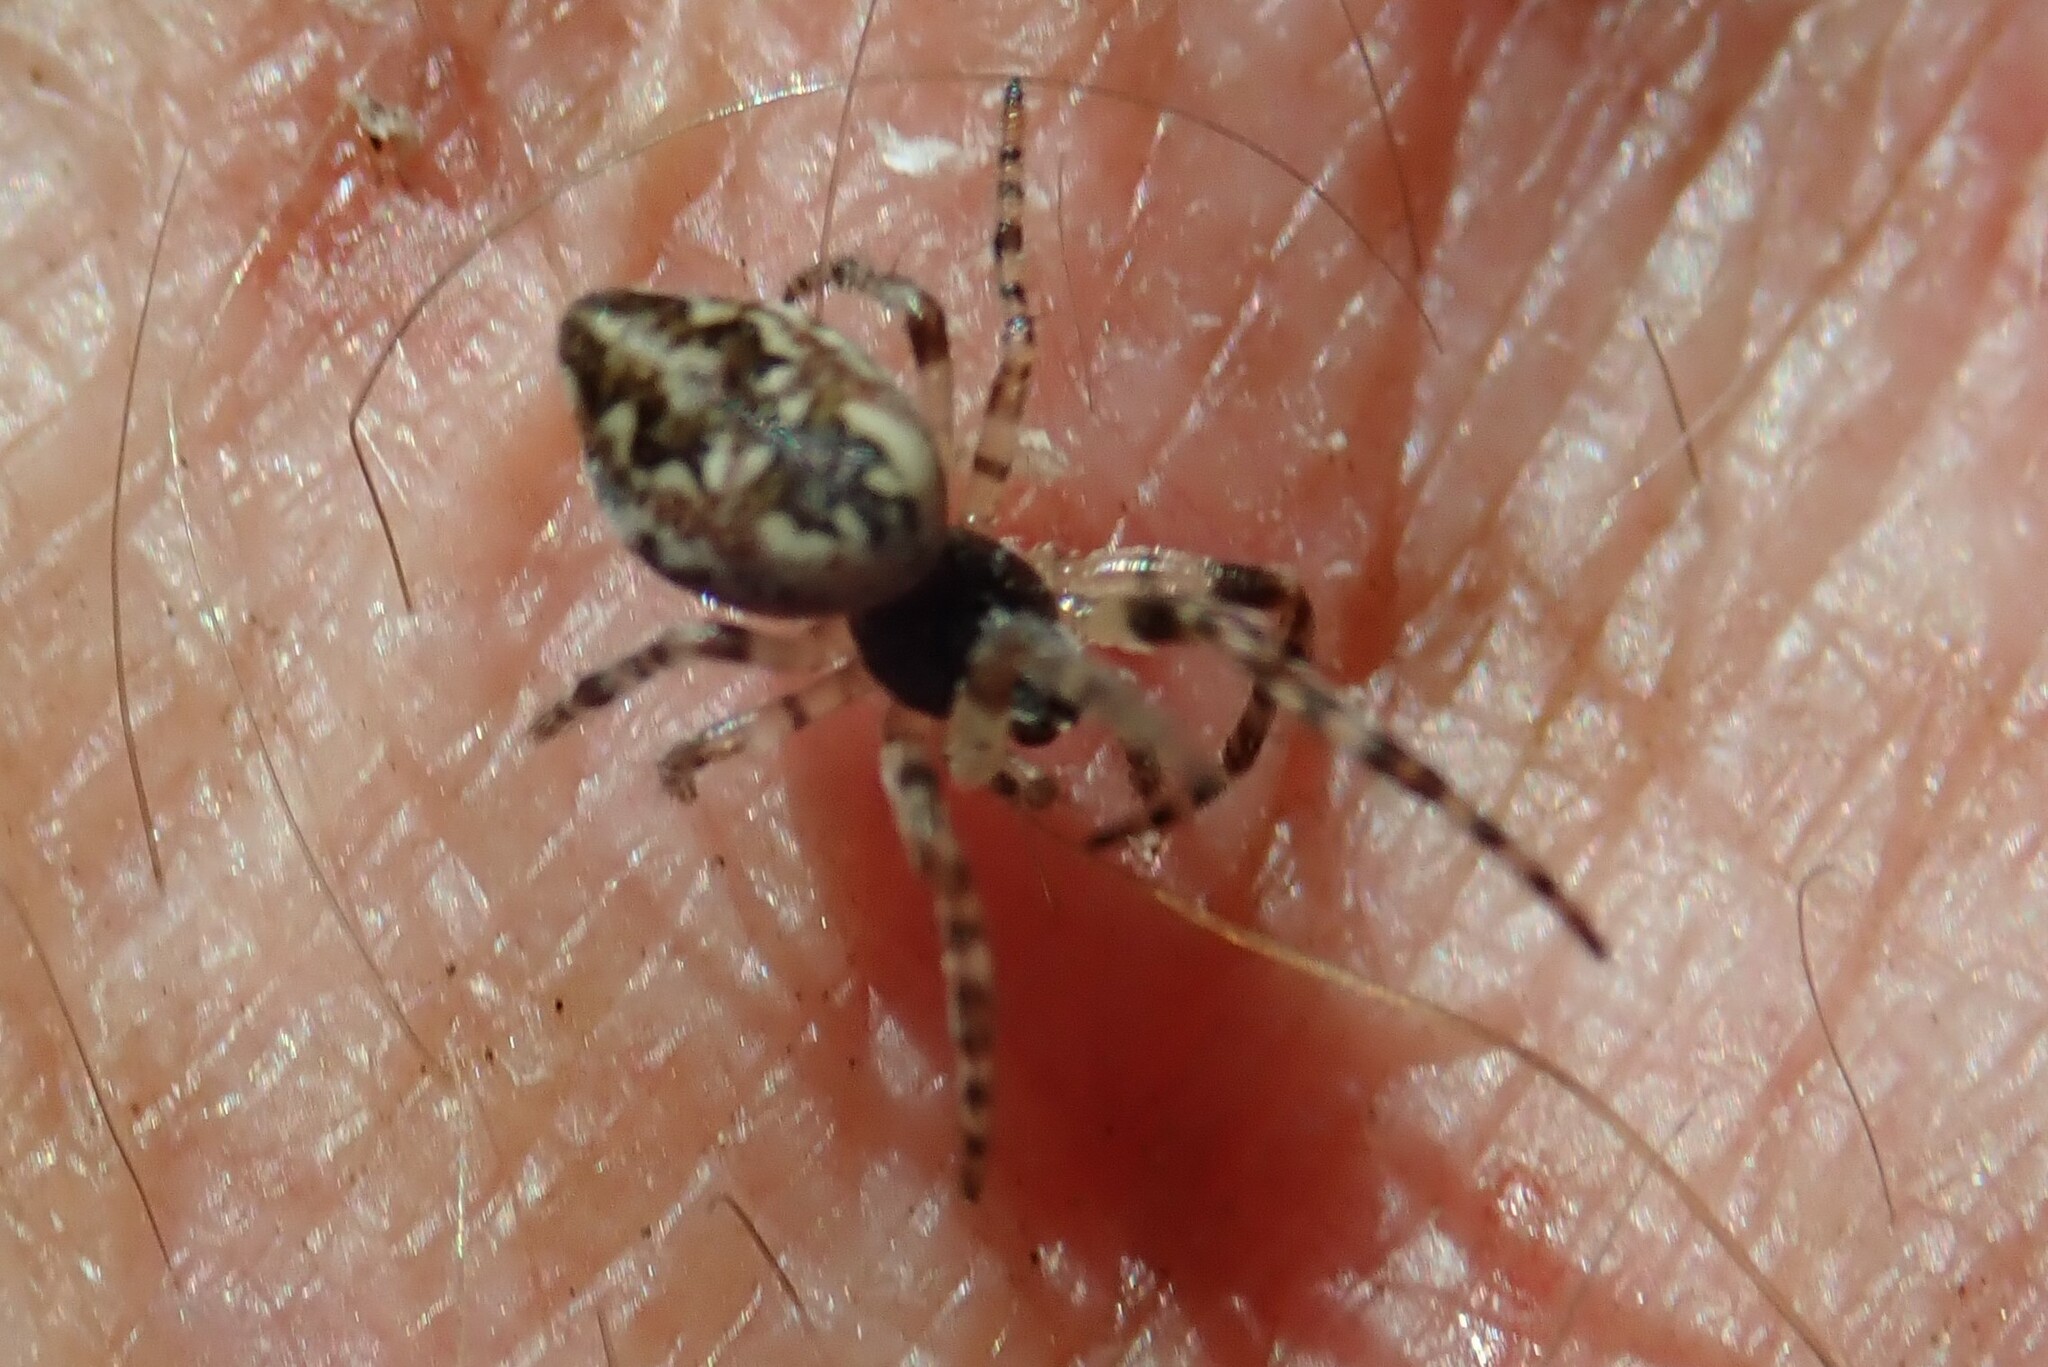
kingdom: Animalia
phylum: Arthropoda
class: Arachnida
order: Araneae
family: Araneidae
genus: Cyclosa
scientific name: Cyclosa conica
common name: Conical trashline orbweaver
